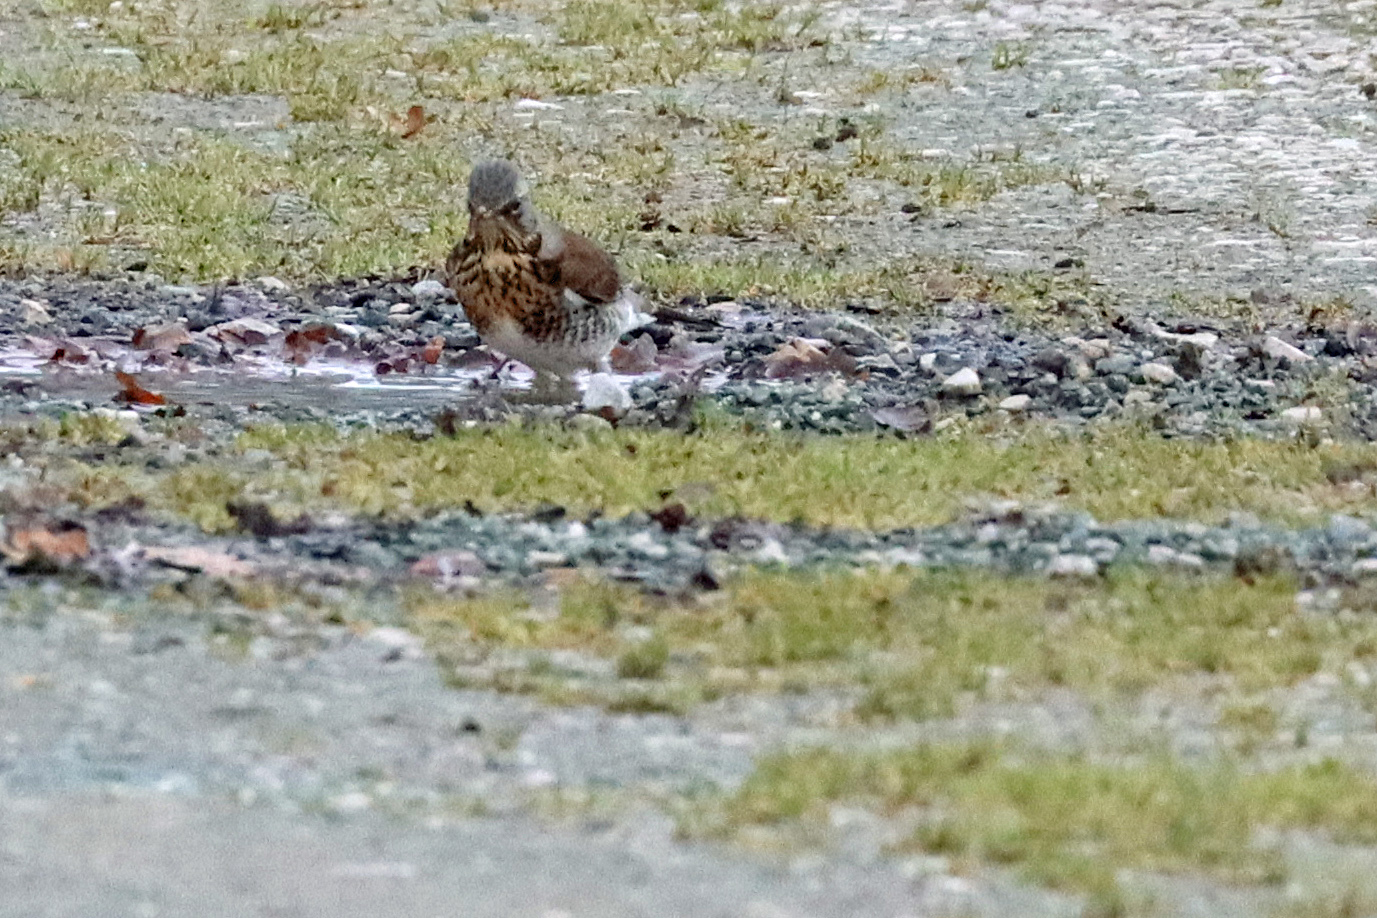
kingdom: Animalia
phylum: Chordata
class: Aves
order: Passeriformes
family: Turdidae
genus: Turdus
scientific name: Turdus pilaris
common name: Fieldfare
